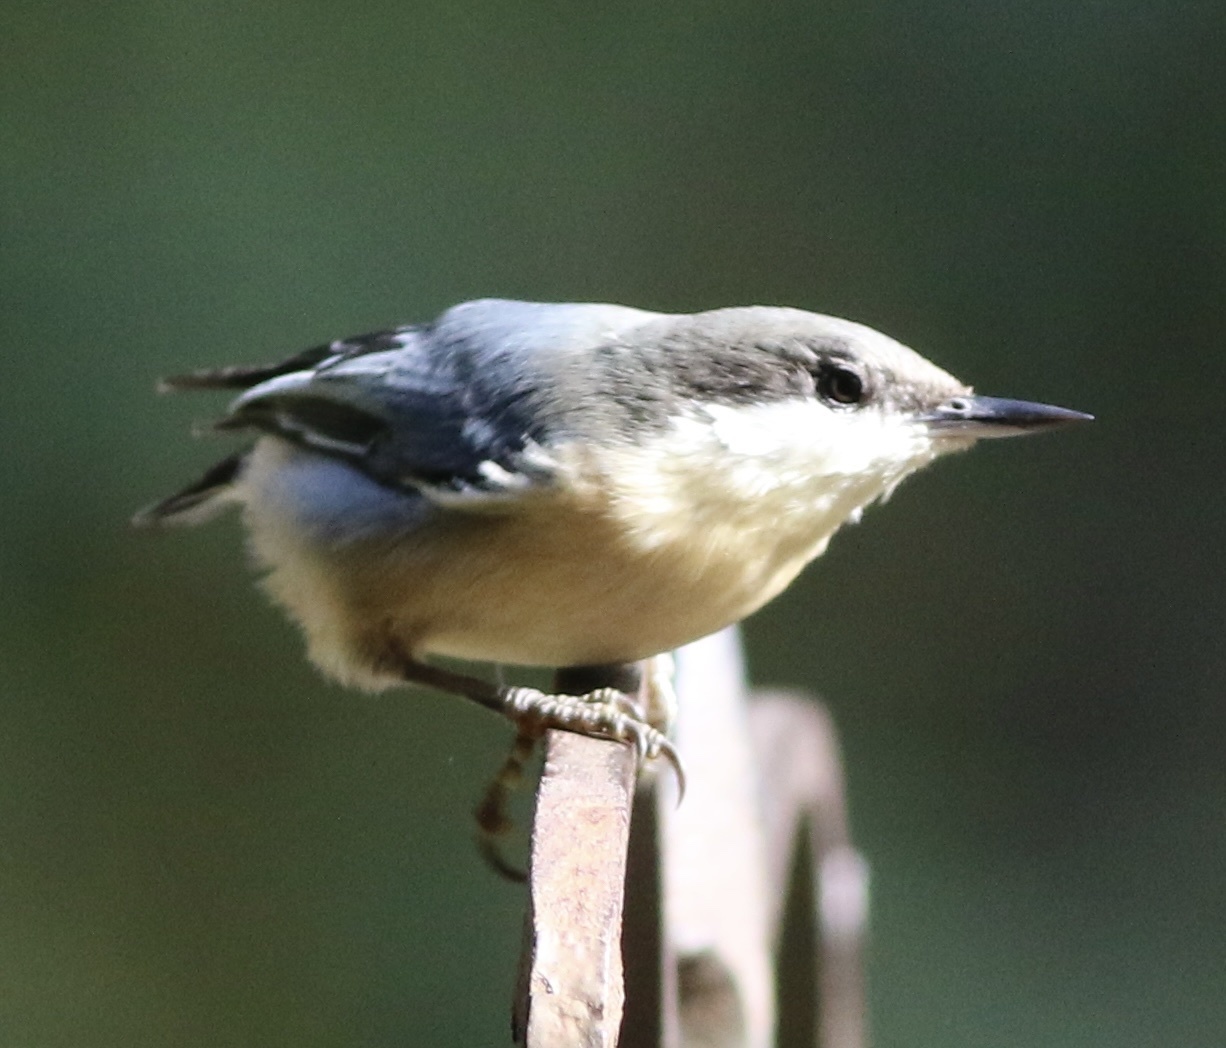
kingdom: Animalia
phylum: Chordata
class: Aves
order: Passeriformes
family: Sittidae
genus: Sitta
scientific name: Sitta pygmaea
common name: Pygmy nuthatch
